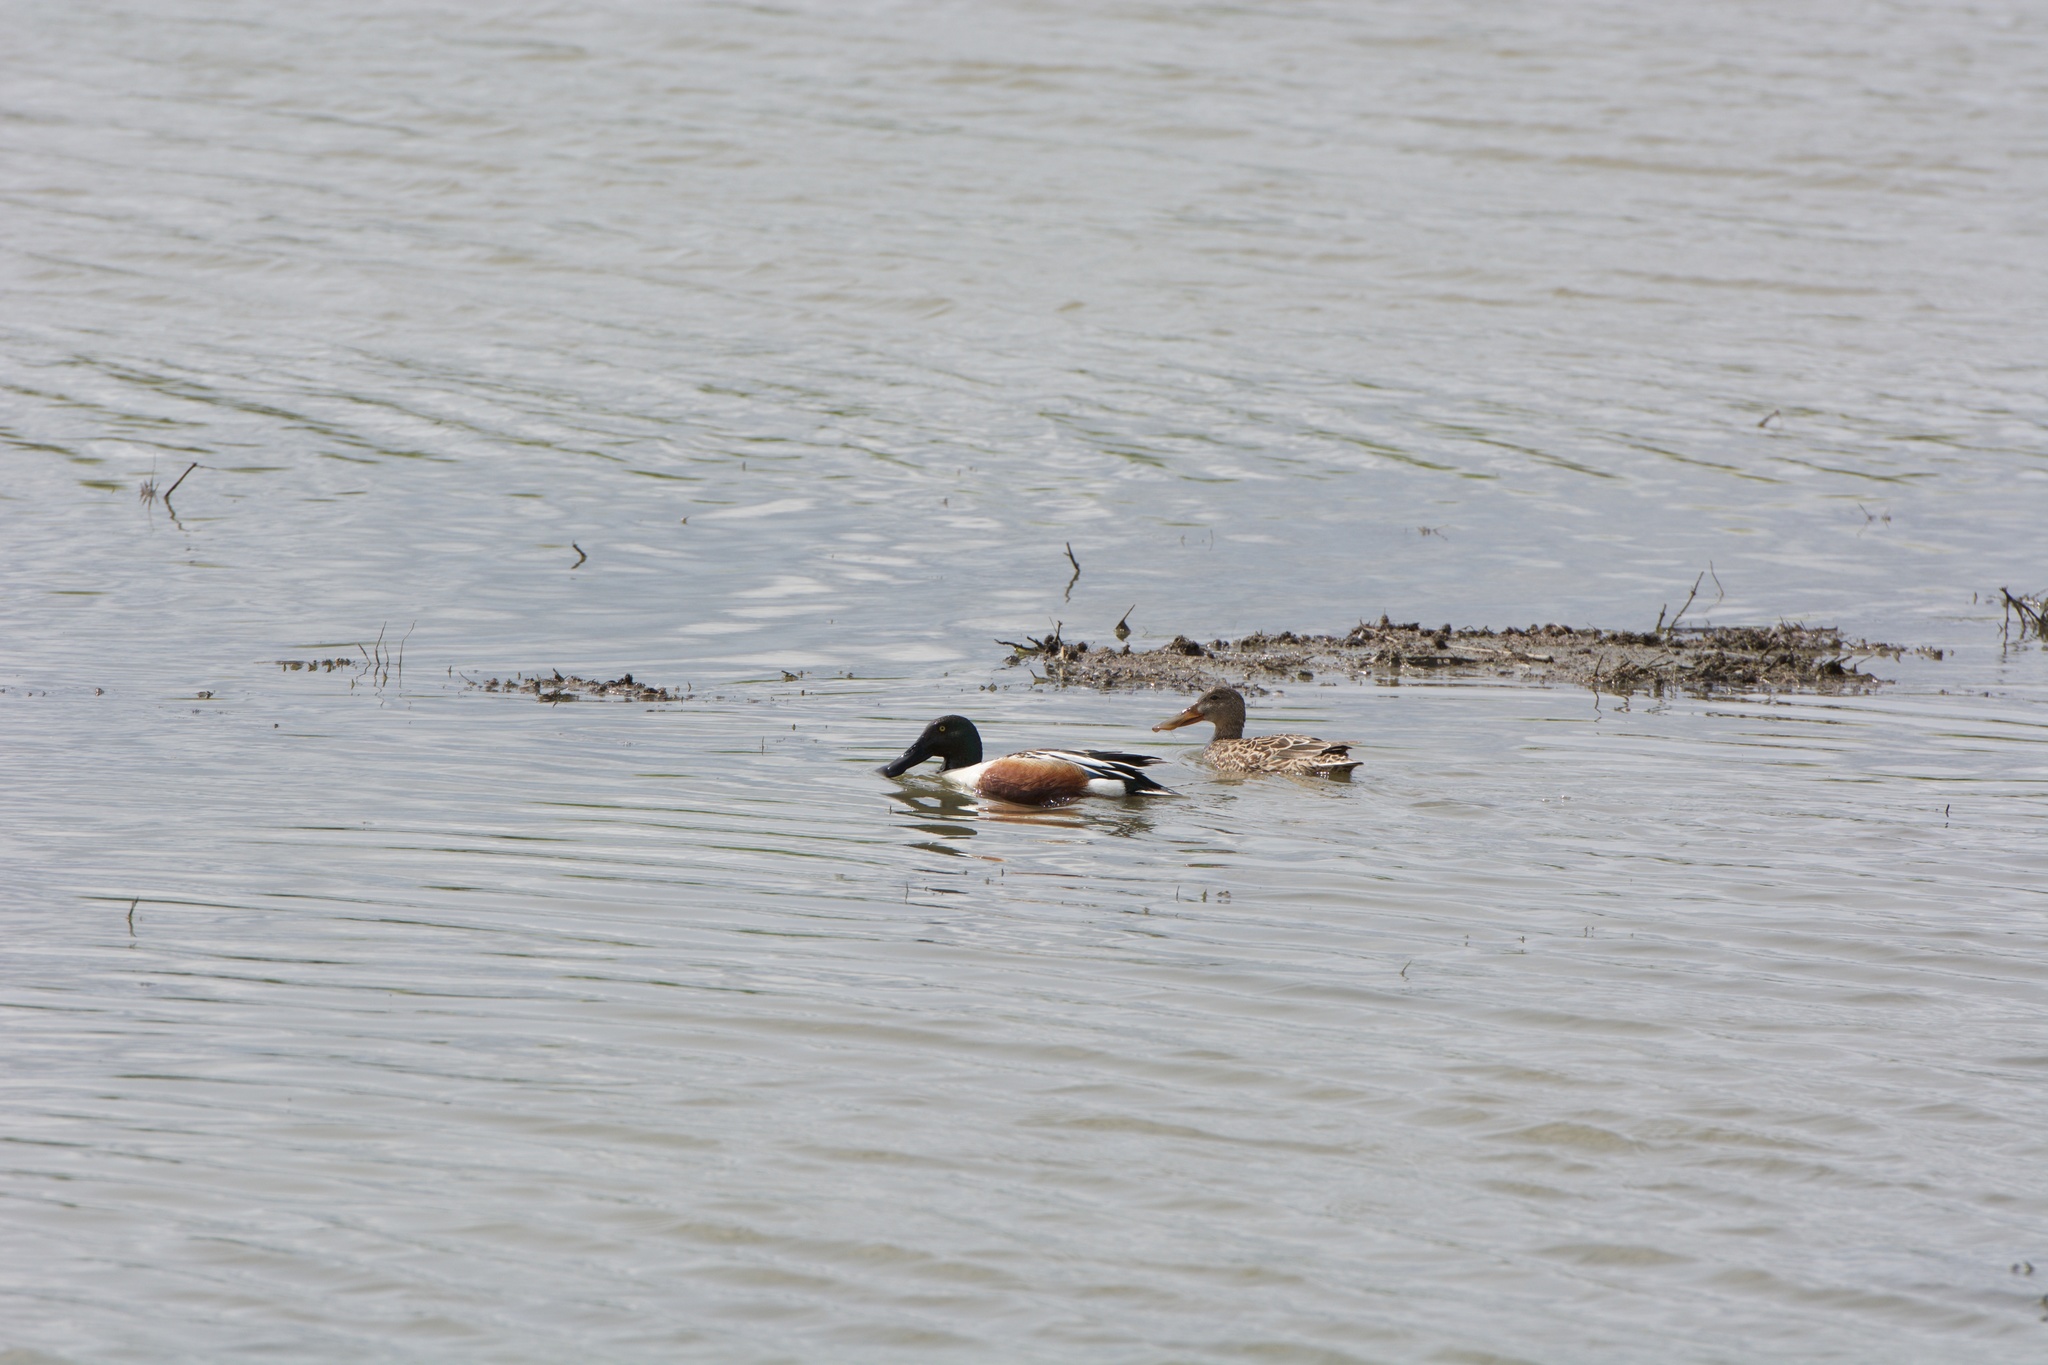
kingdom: Animalia
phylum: Chordata
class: Aves
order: Anseriformes
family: Anatidae
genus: Spatula
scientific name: Spatula clypeata
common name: Northern shoveler
